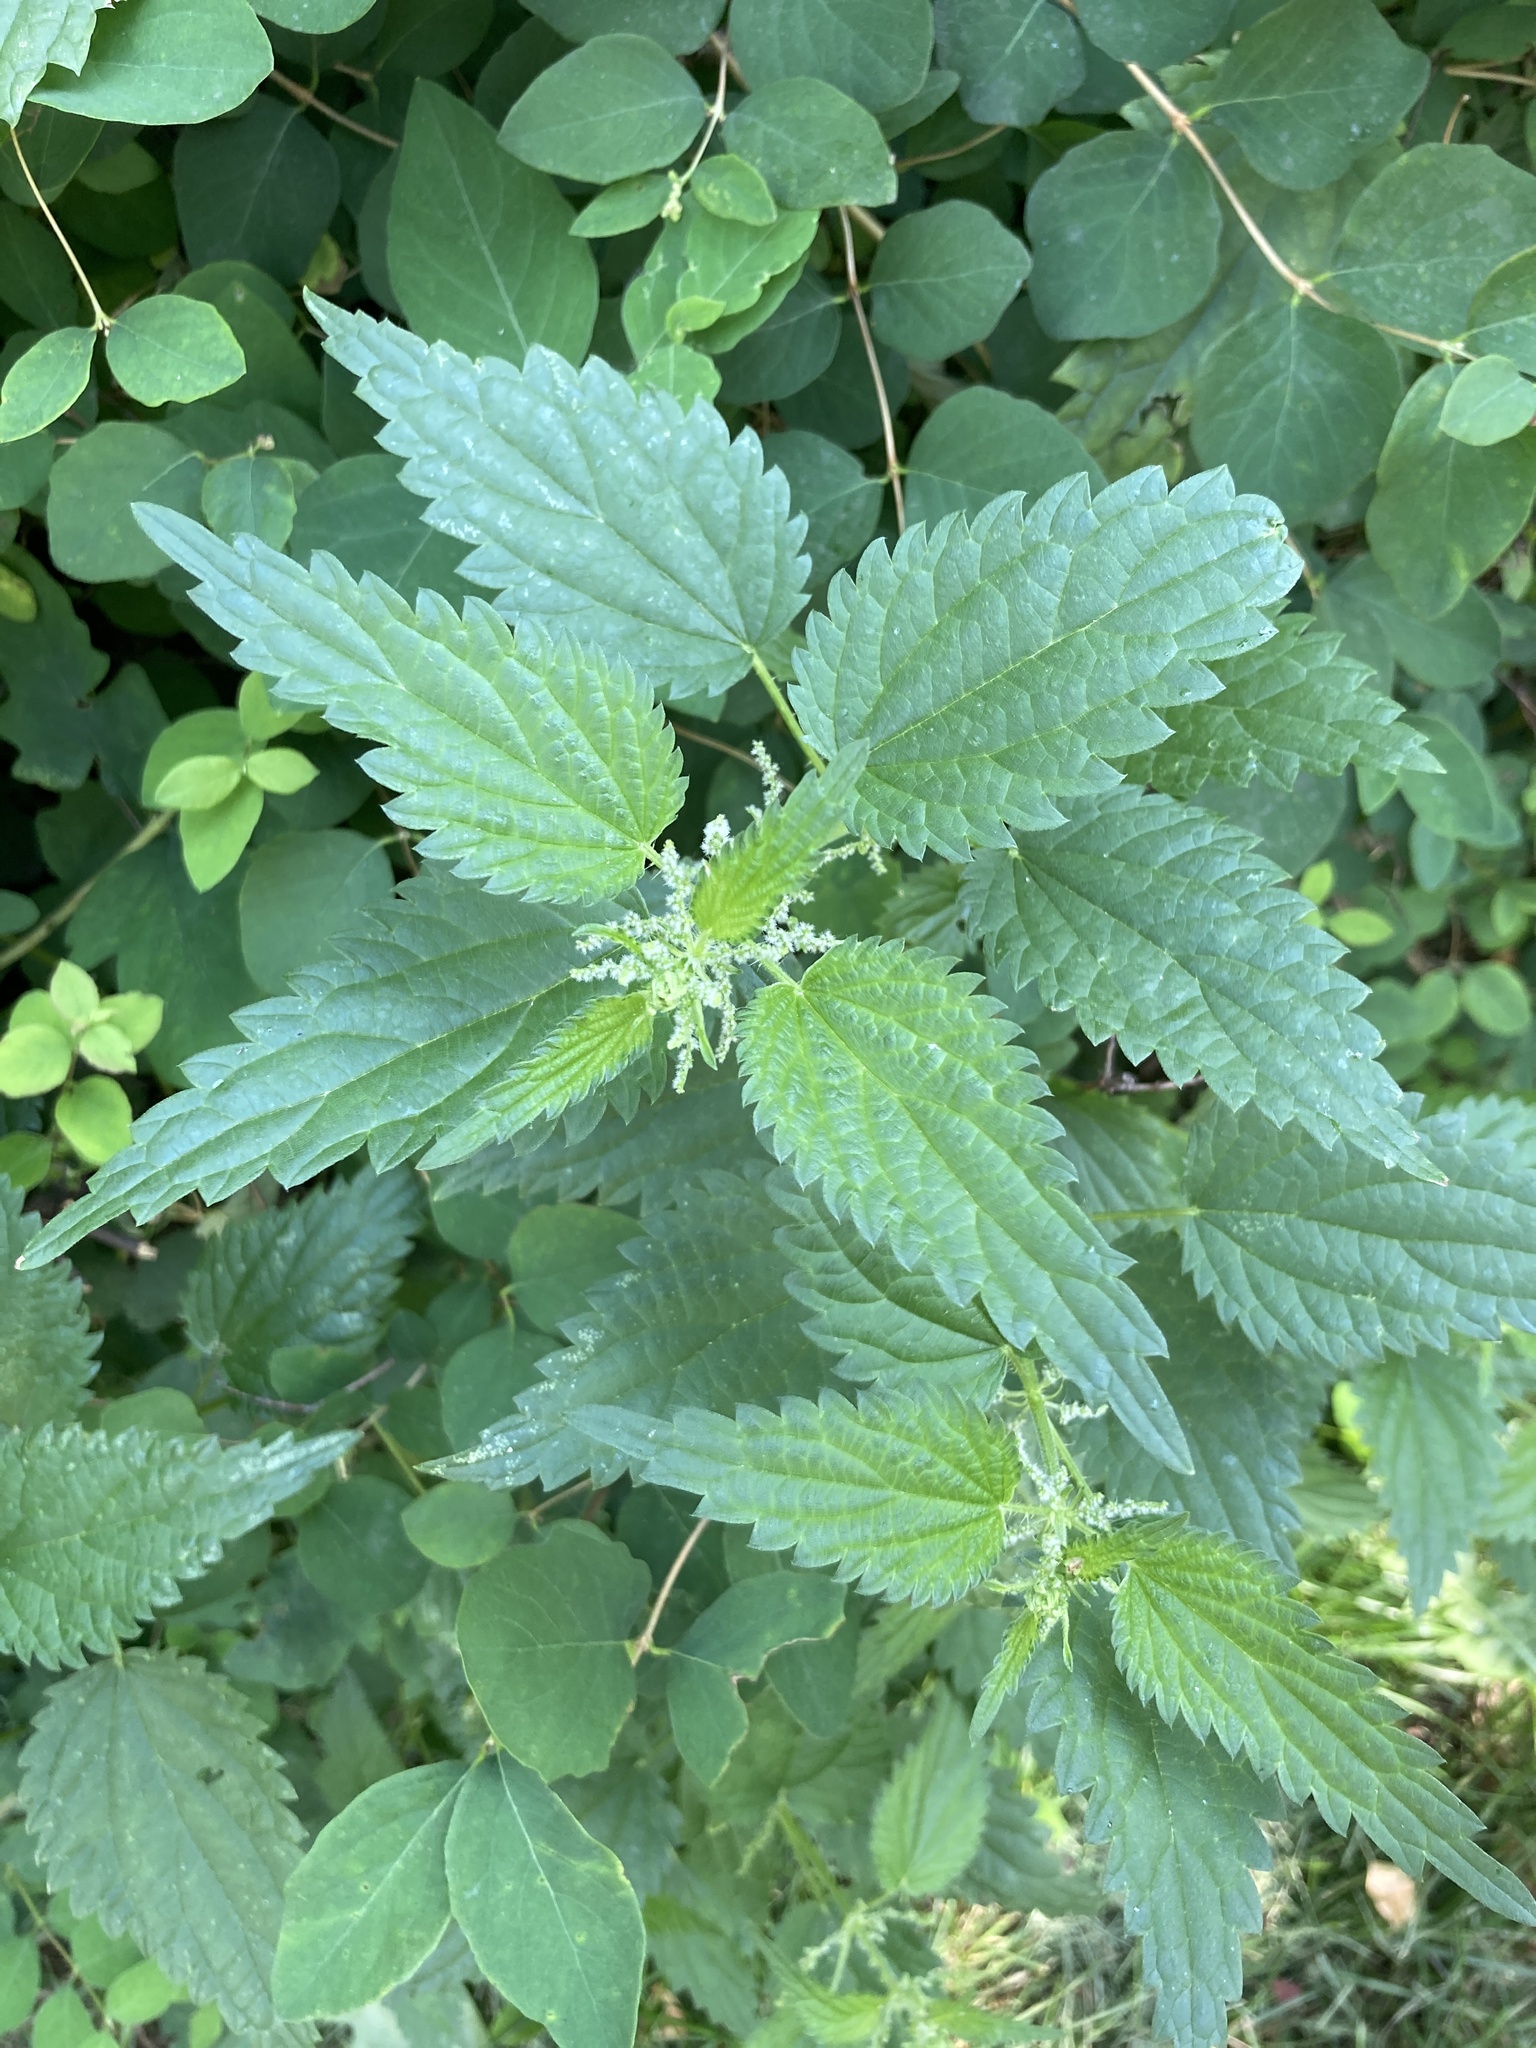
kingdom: Plantae
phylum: Tracheophyta
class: Magnoliopsida
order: Rosales
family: Urticaceae
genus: Urtica
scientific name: Urtica dioica
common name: Common nettle
